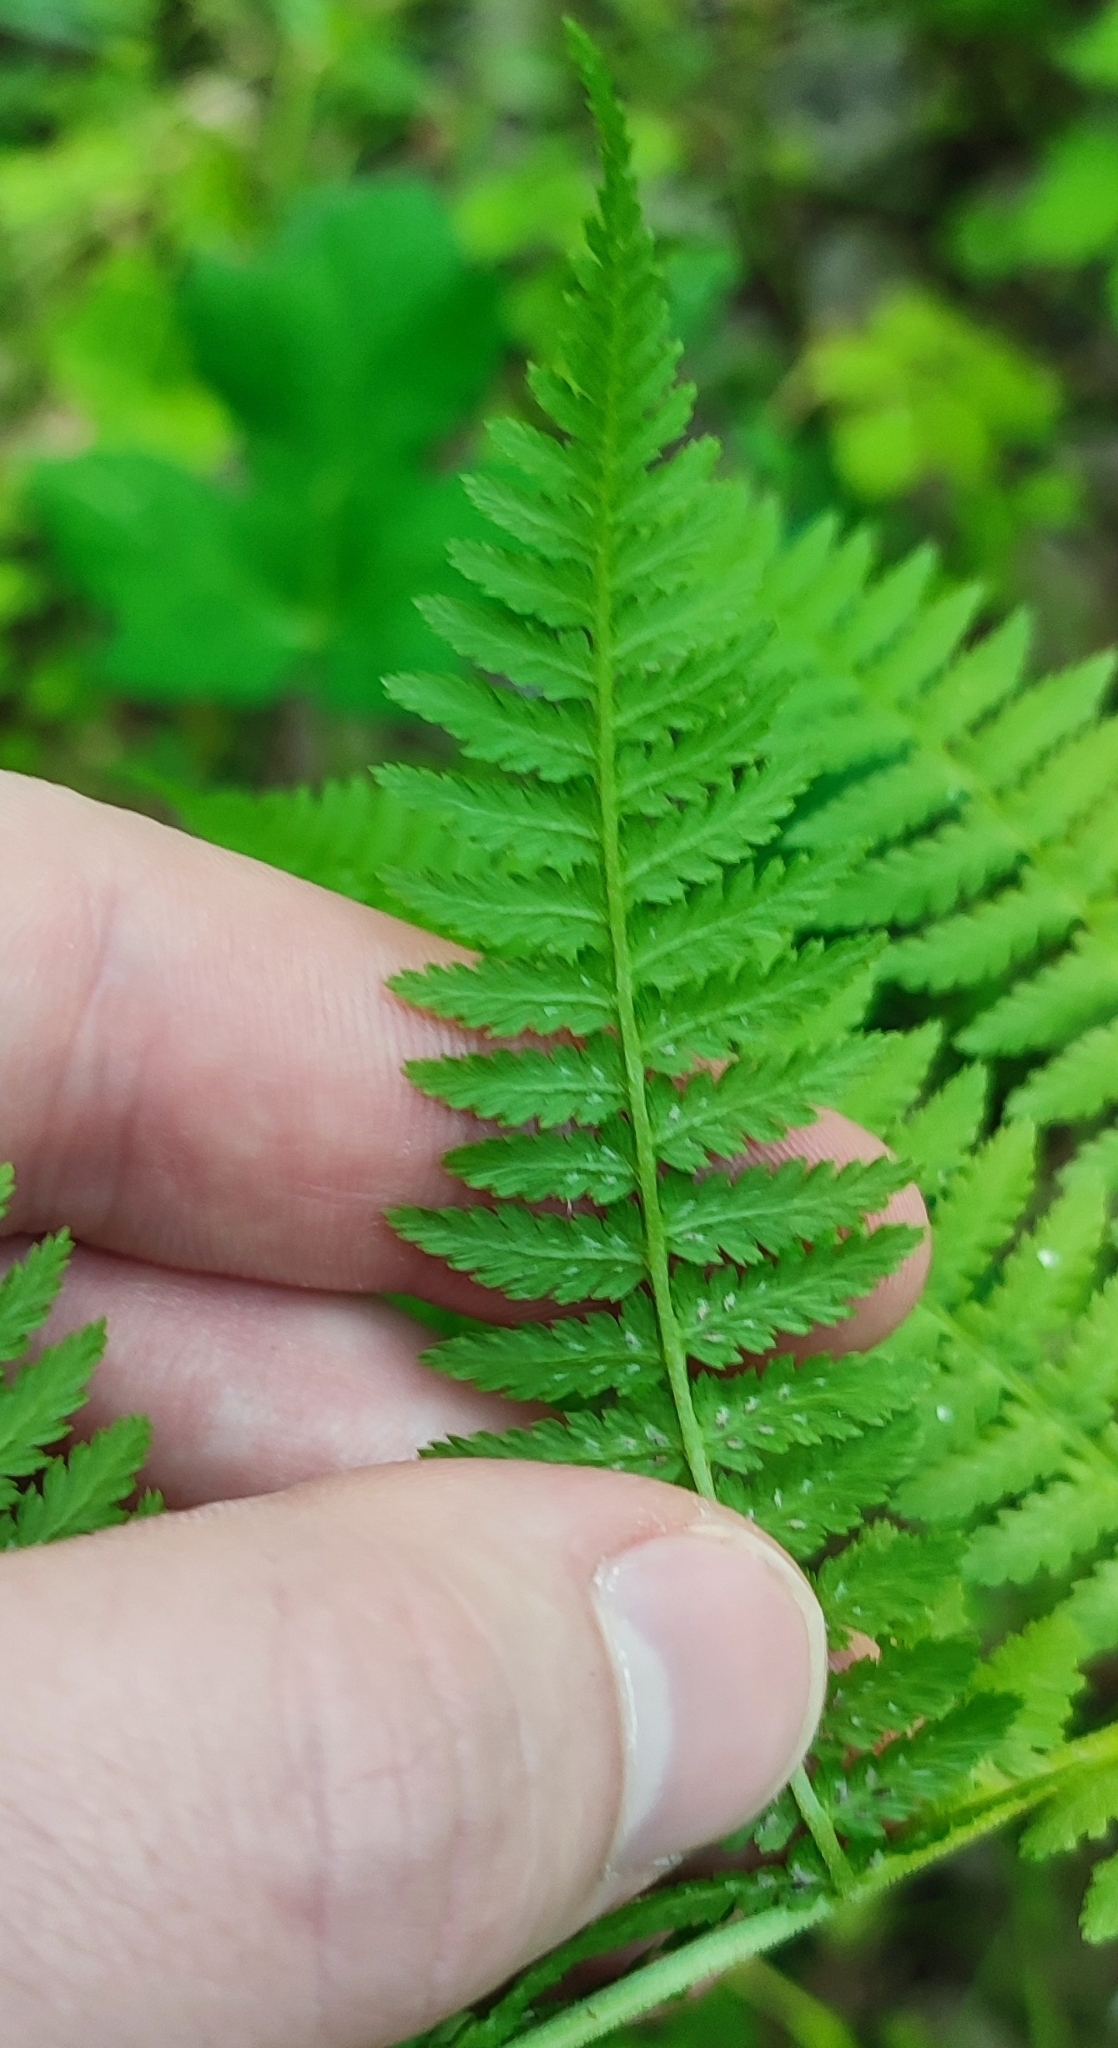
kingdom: Plantae
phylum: Tracheophyta
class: Polypodiopsida
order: Polypodiales
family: Athyriaceae
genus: Athyrium
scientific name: Athyrium filix-femina
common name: Lady fern
